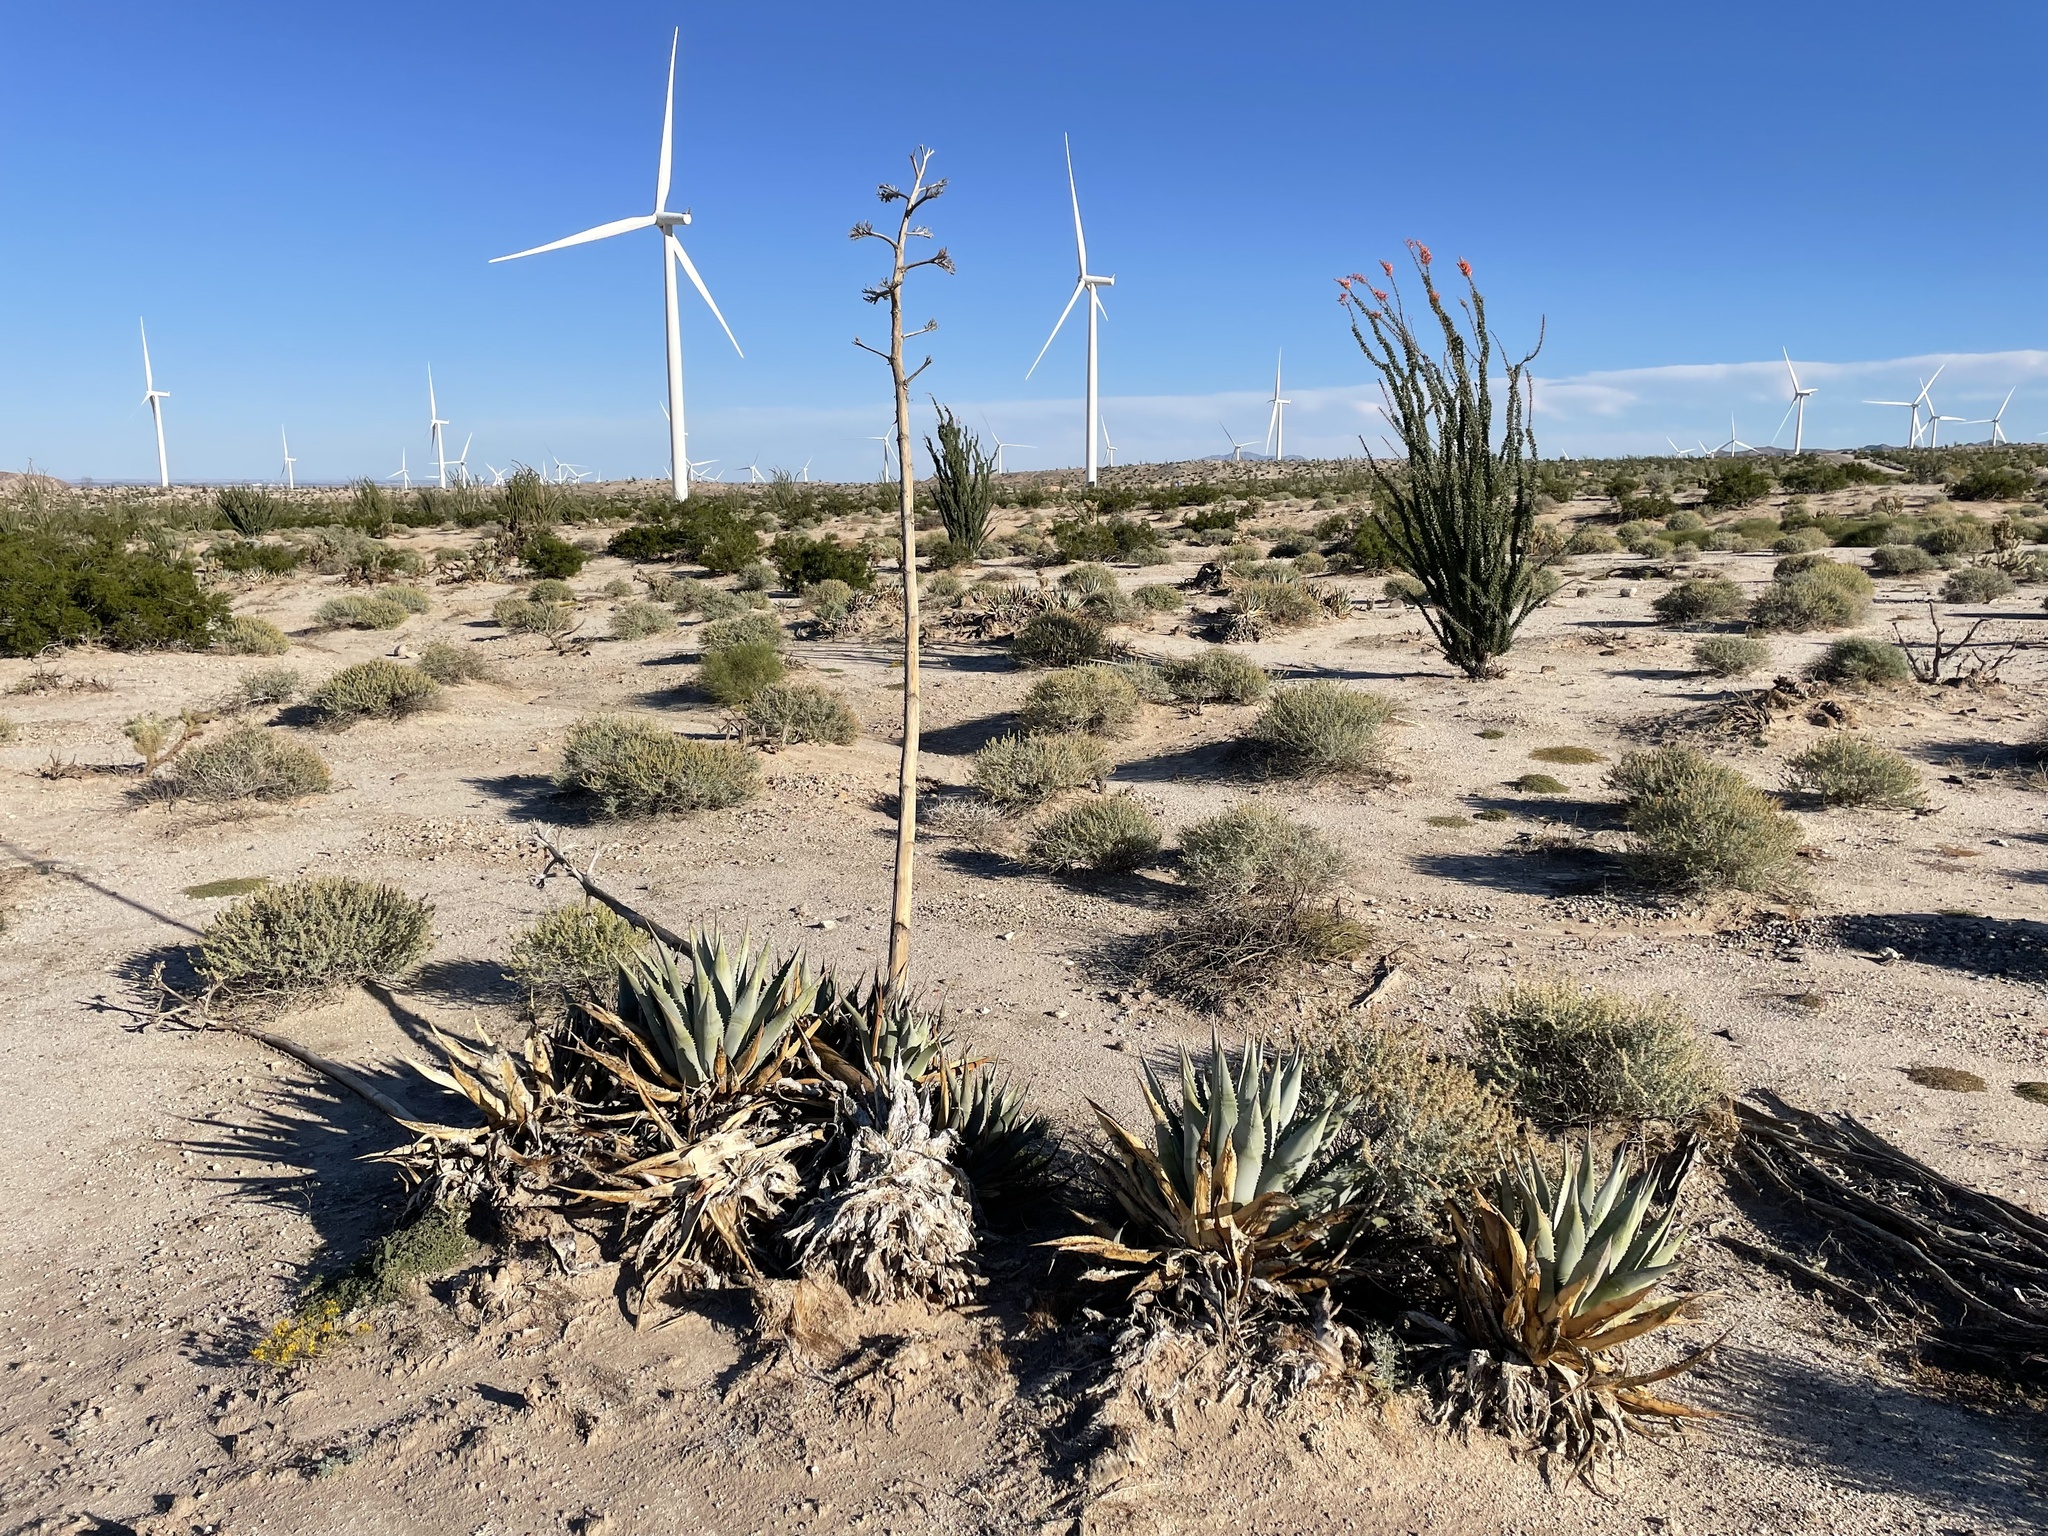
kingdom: Plantae
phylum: Tracheophyta
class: Liliopsida
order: Asparagales
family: Asparagaceae
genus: Agave
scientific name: Agave deserti
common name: Desert agave
